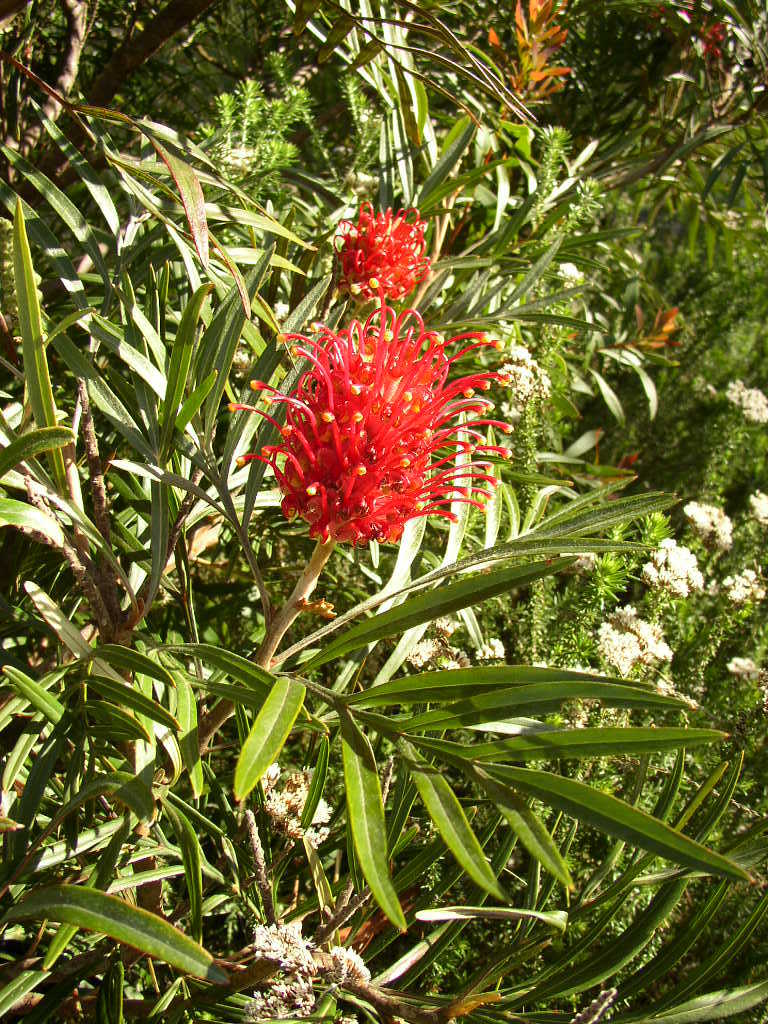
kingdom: Plantae
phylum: Tracheophyta
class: Magnoliopsida
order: Proteales
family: Proteaceae
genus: Grevillea
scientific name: Grevillea banksii
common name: Kahili flower
